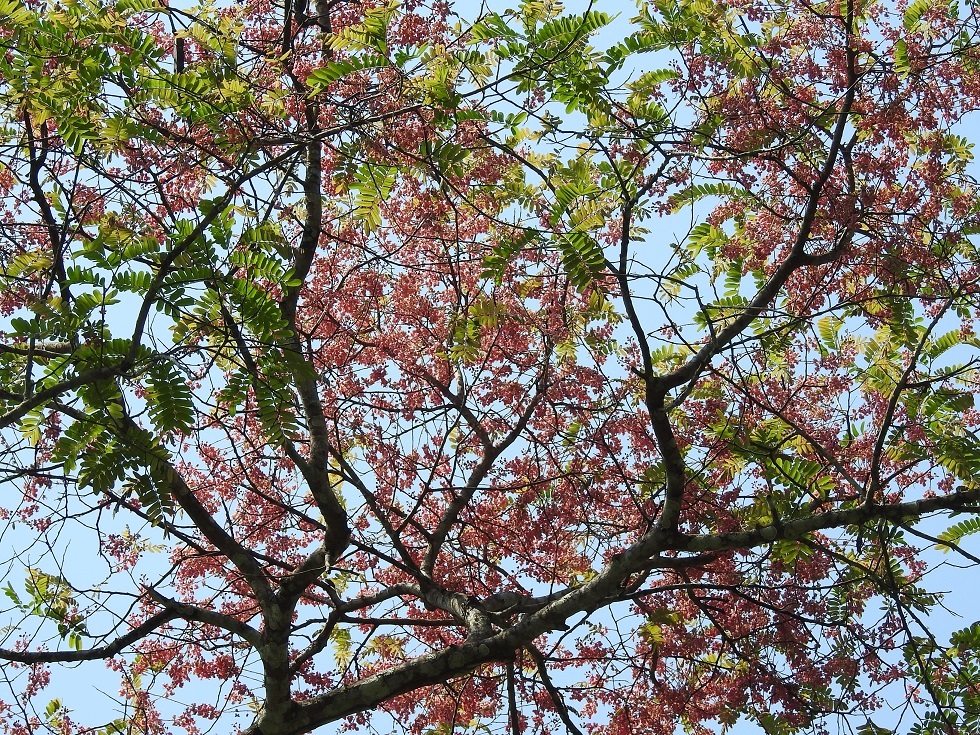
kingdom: Plantae
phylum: Tracheophyta
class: Magnoliopsida
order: Fabales
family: Fabaceae
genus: Cassia
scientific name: Cassia grandis
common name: Appleblossom cassia
